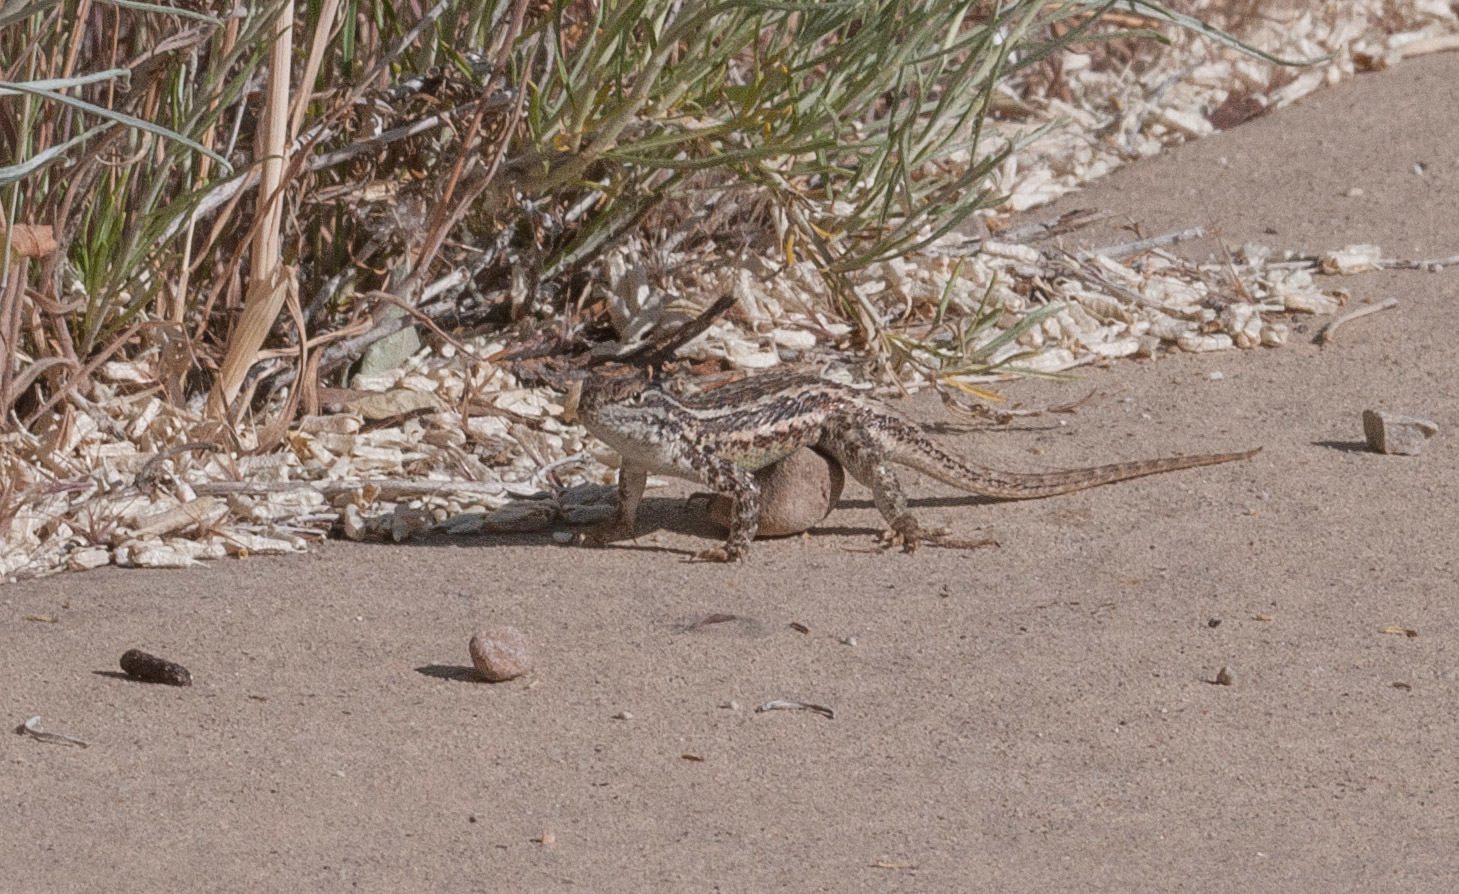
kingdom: Animalia
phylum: Chordata
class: Squamata
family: Phrynosomatidae
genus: Sceloporus
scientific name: Sceloporus graciosus
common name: Sagebrush lizard
